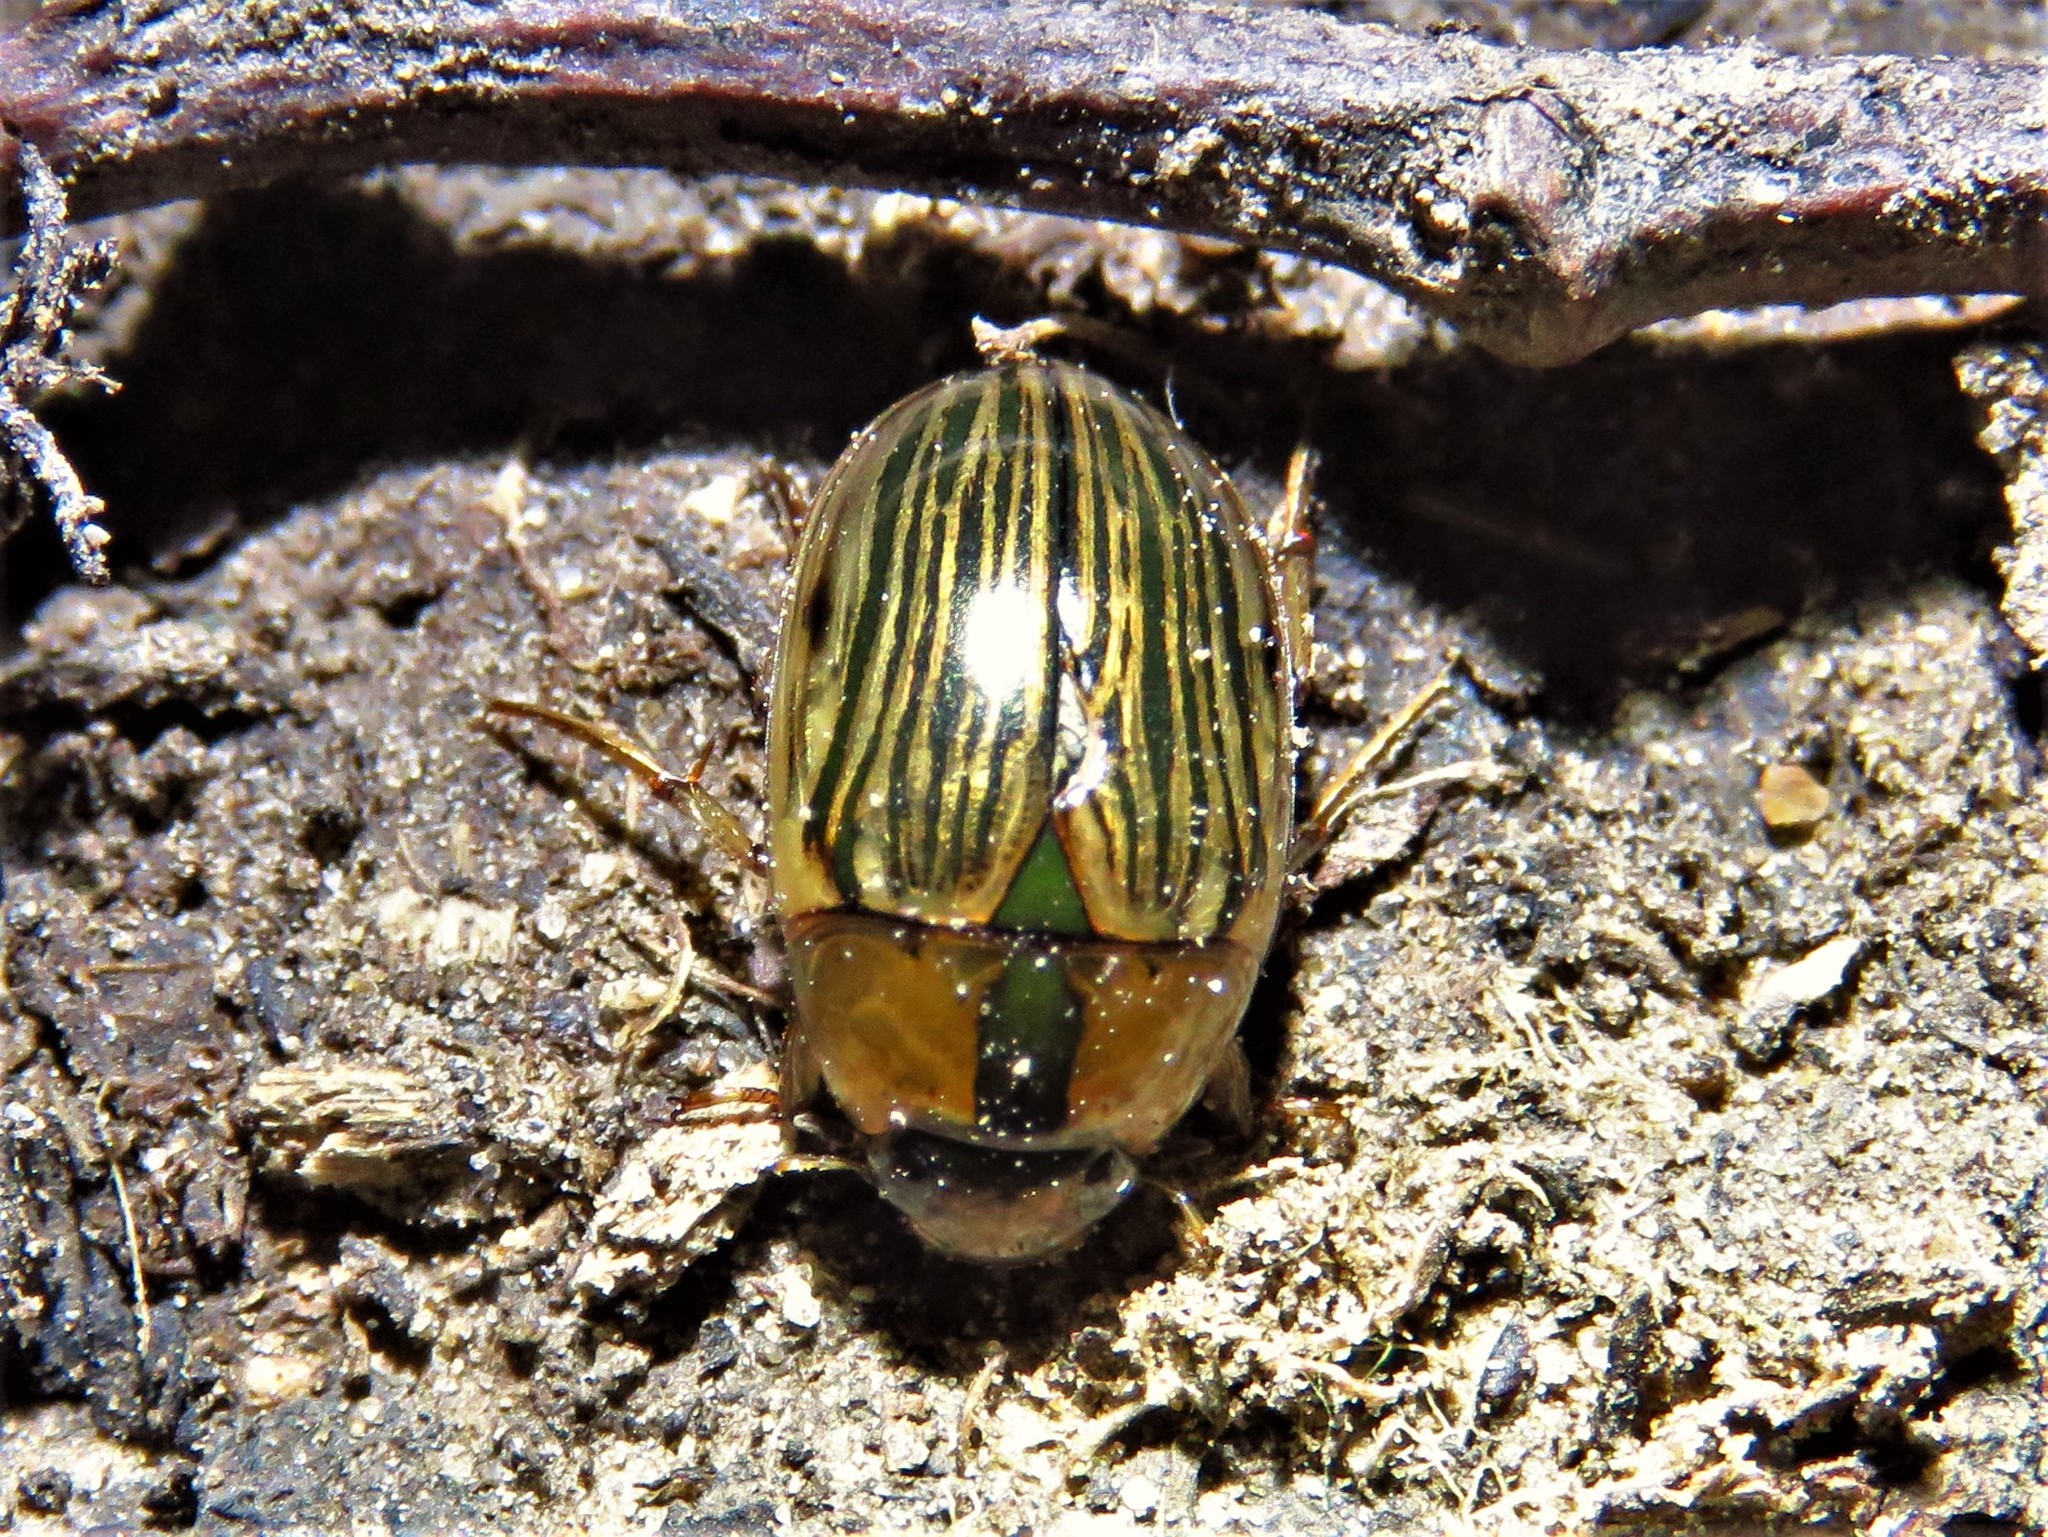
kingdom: Animalia
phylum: Arthropoda
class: Insecta
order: Coleoptera
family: Hydrophilidae
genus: Tropisternus
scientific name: Tropisternus collaris
